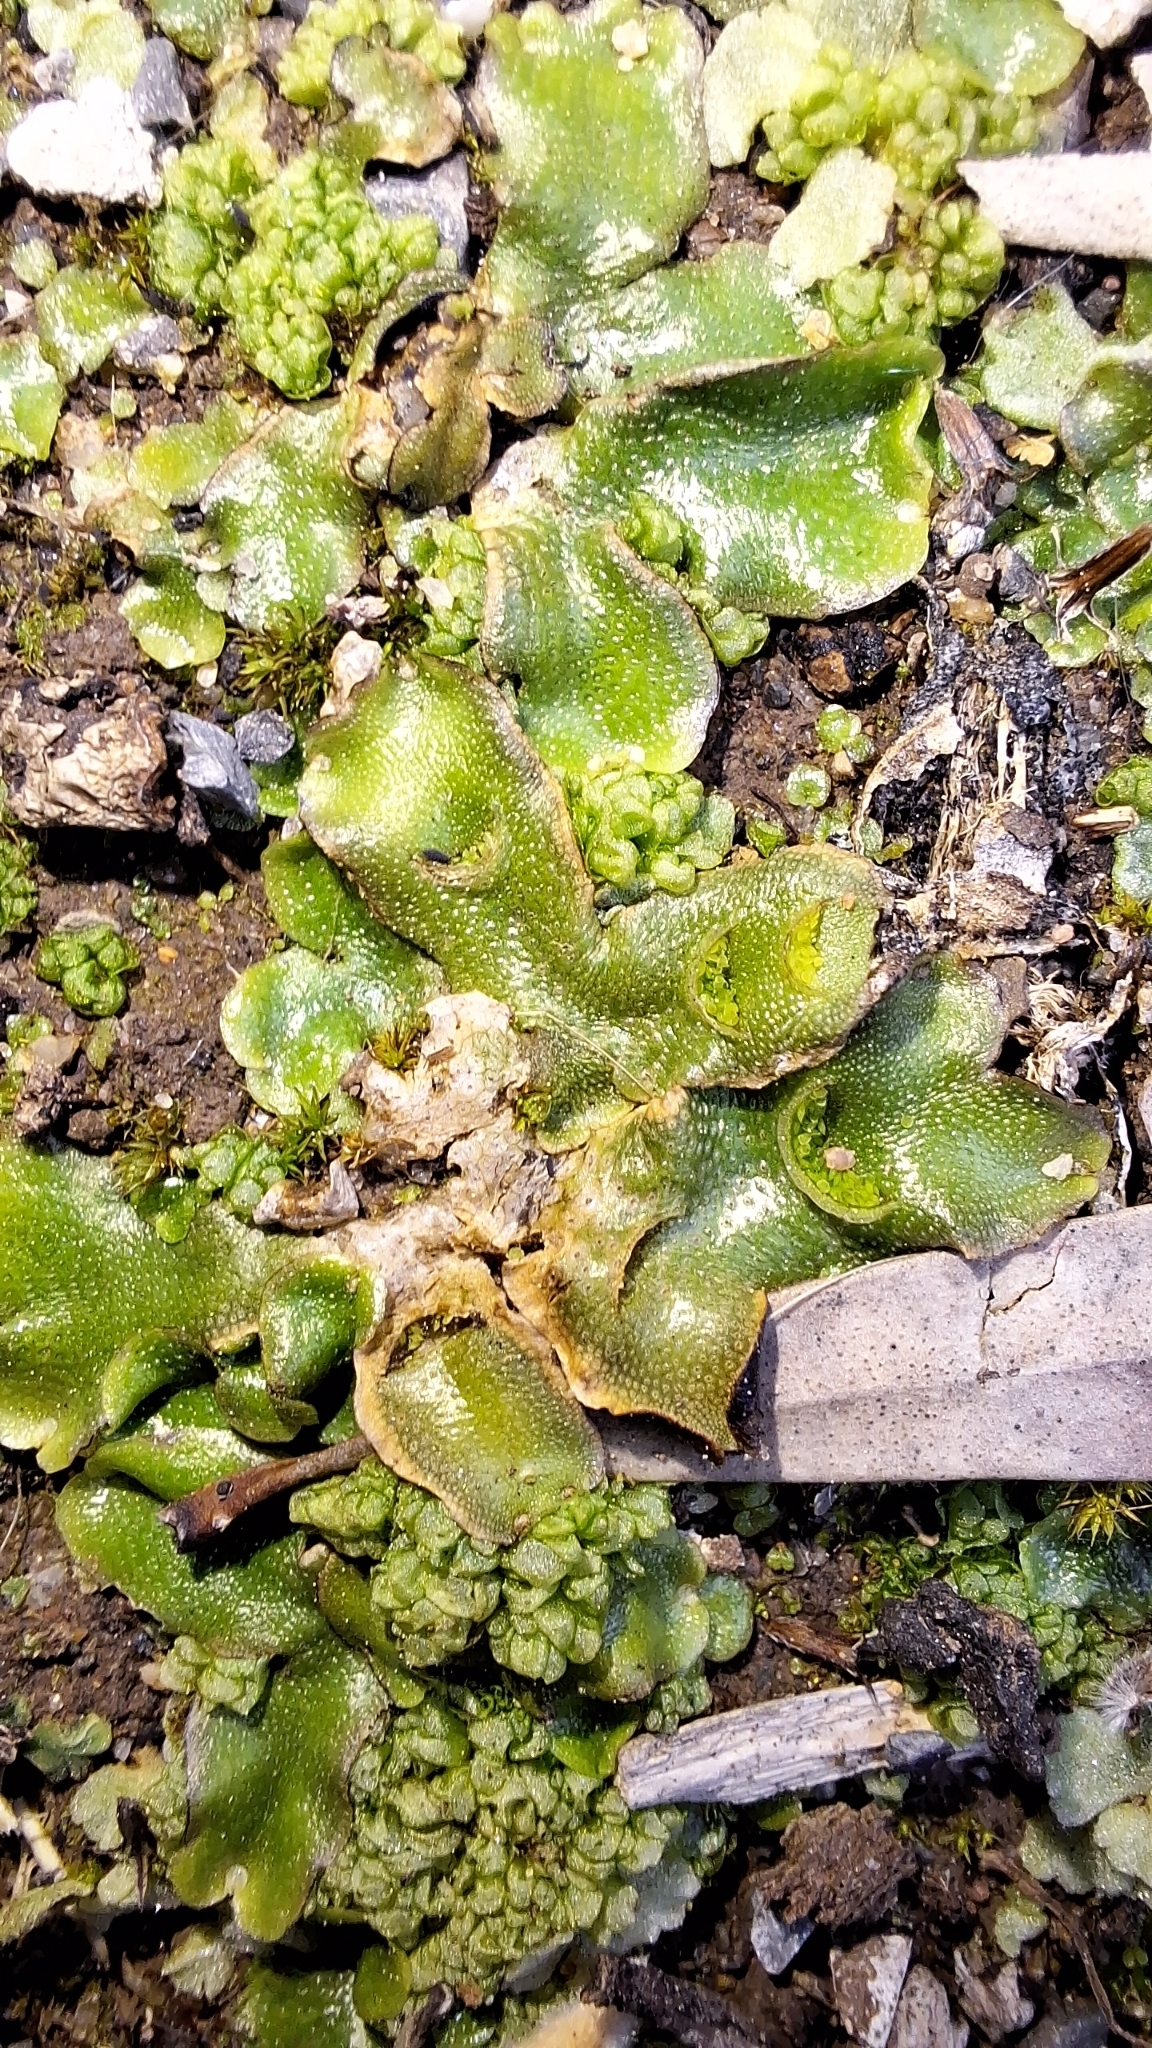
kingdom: Plantae
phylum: Marchantiophyta
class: Marchantiopsida
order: Lunulariales
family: Lunulariaceae
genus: Lunularia
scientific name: Lunularia cruciata
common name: Crescent-cup liverwort
